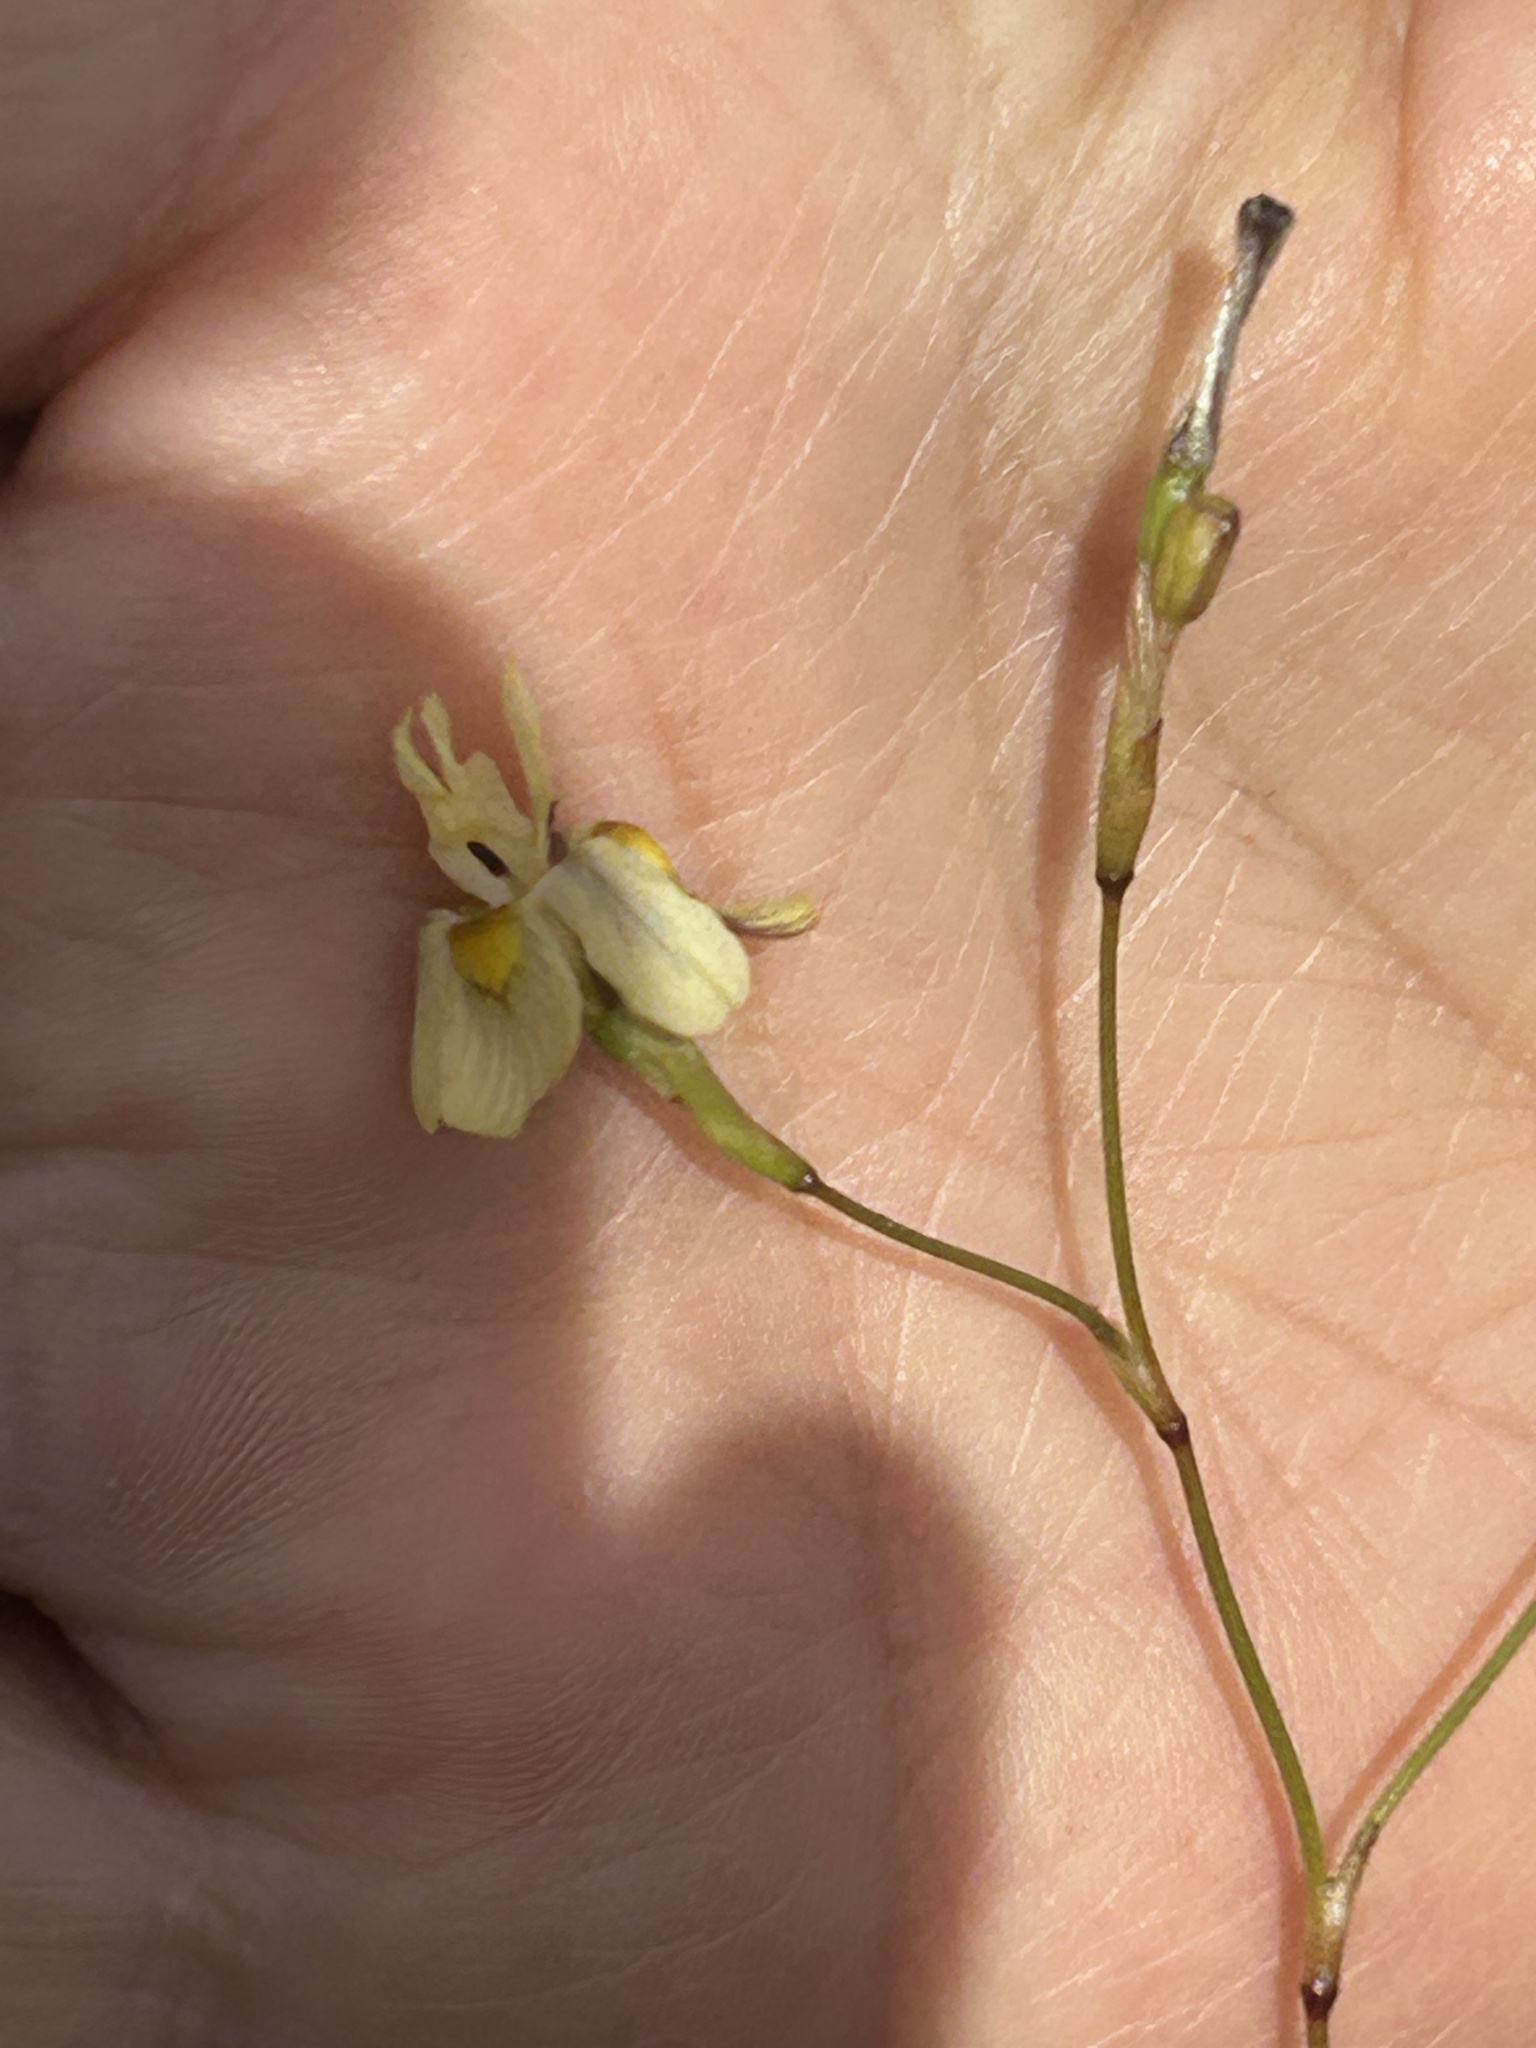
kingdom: Plantae
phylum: Tracheophyta
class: Liliopsida
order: Asparagales
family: Iridaceae
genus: Moraea
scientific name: Moraea inconspicua
